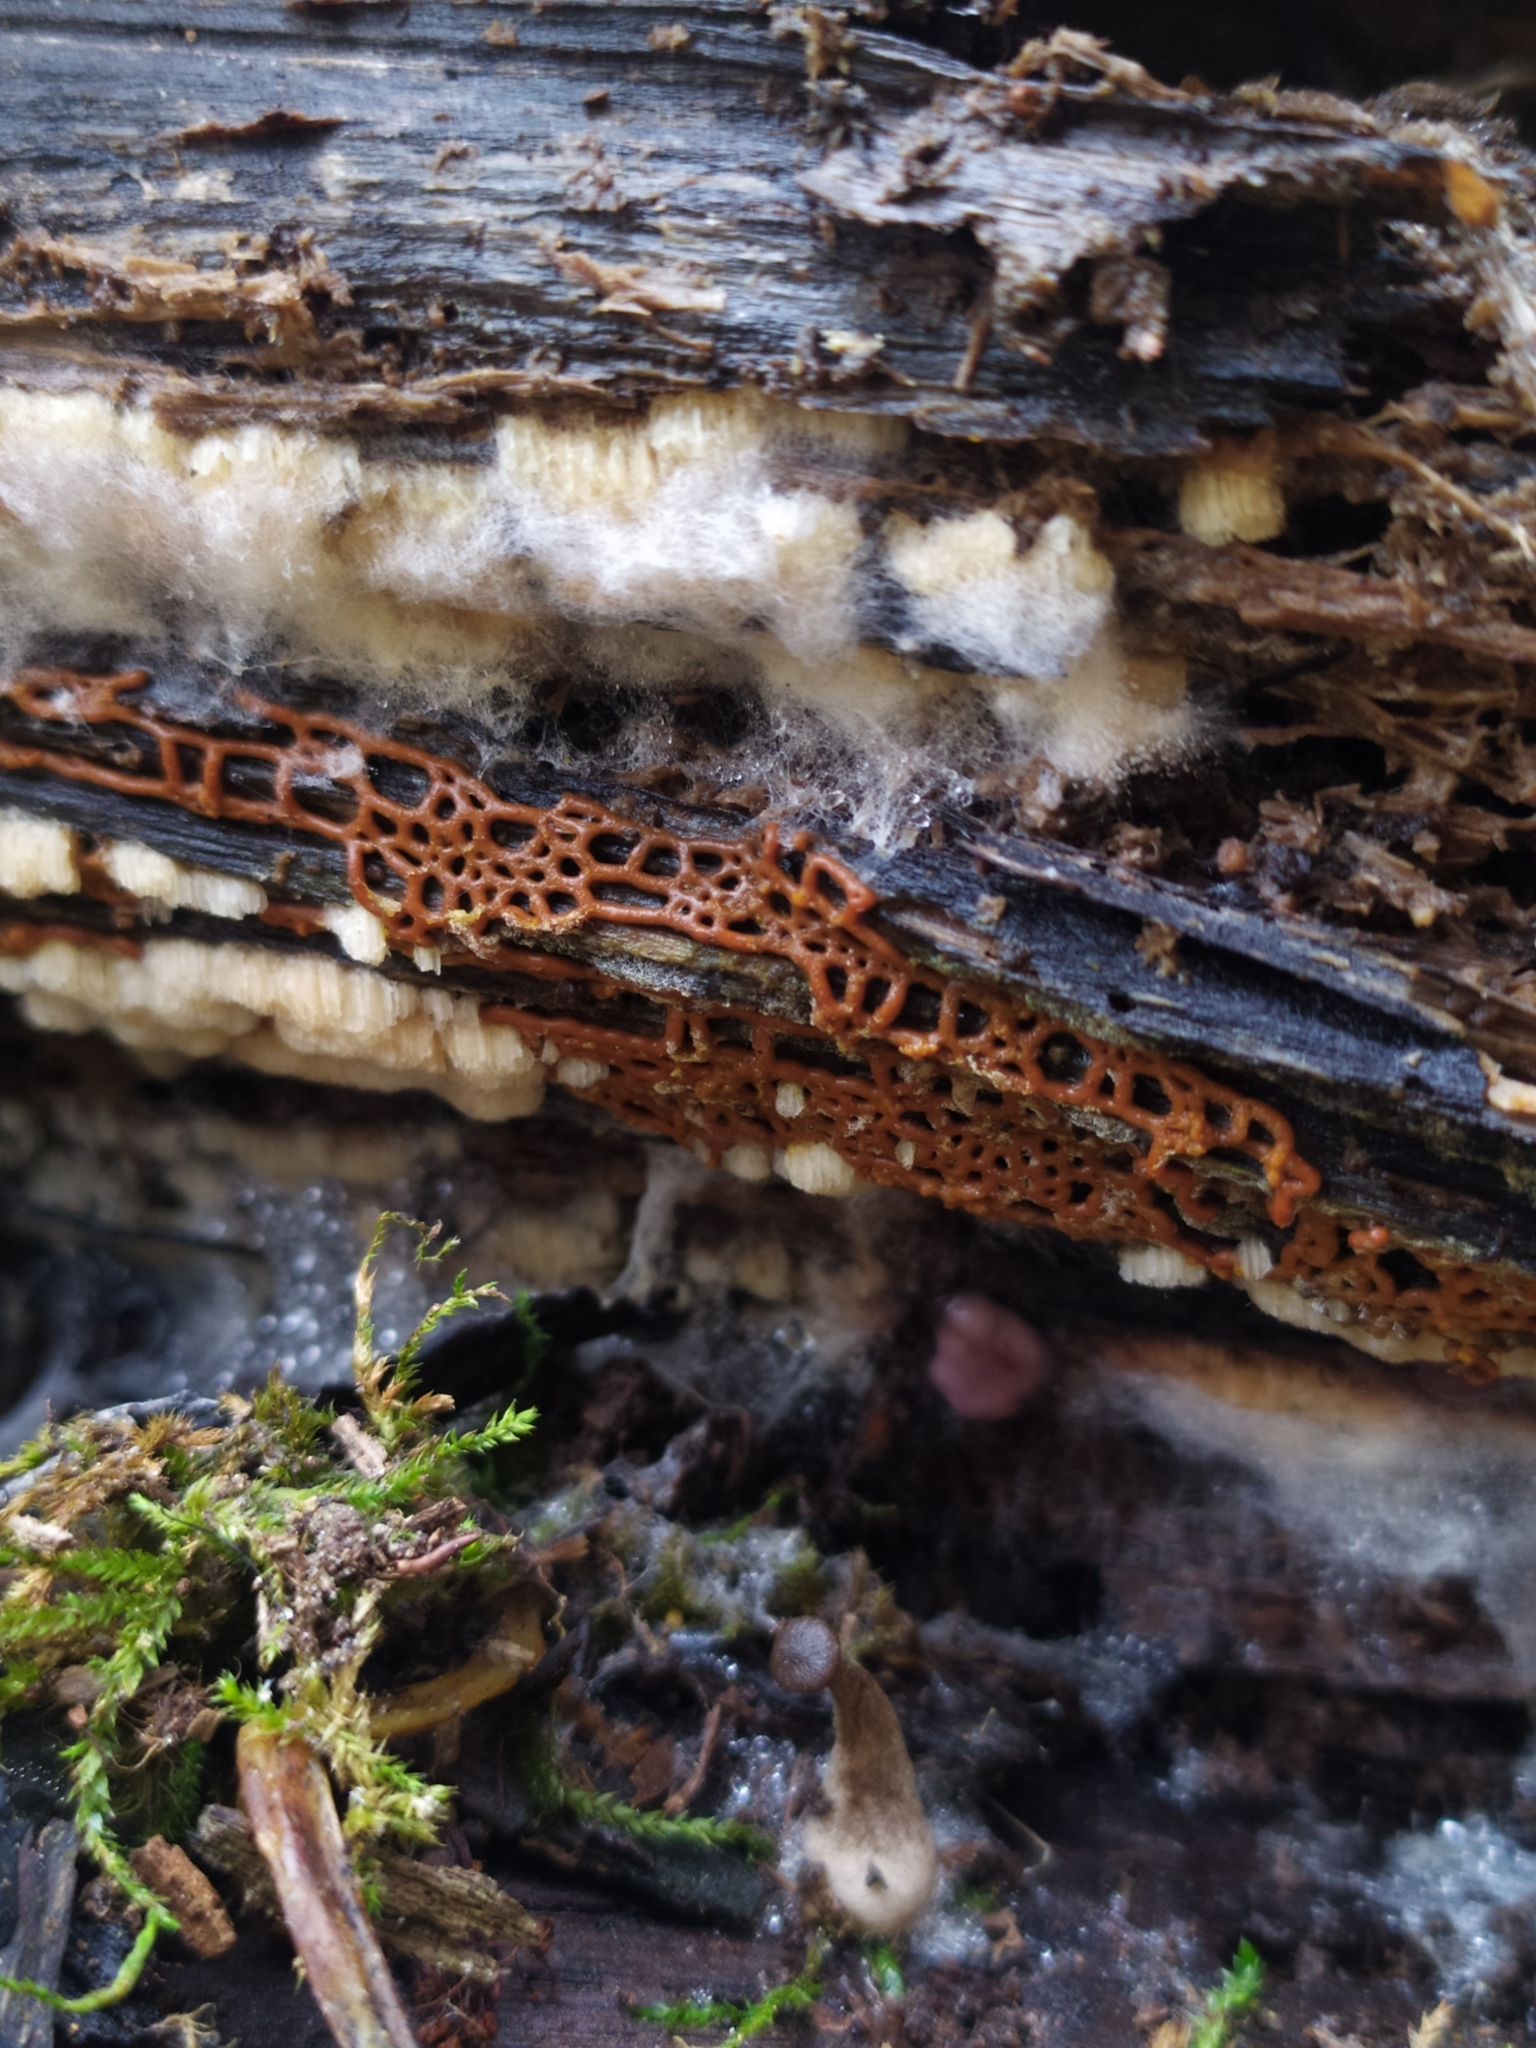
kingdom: Protozoa
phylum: Mycetozoa
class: Myxomycetes
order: Trichiales
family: Arcyriaceae
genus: Hemitrichia
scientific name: Hemitrichia serpula
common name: Pretzel slime mold
